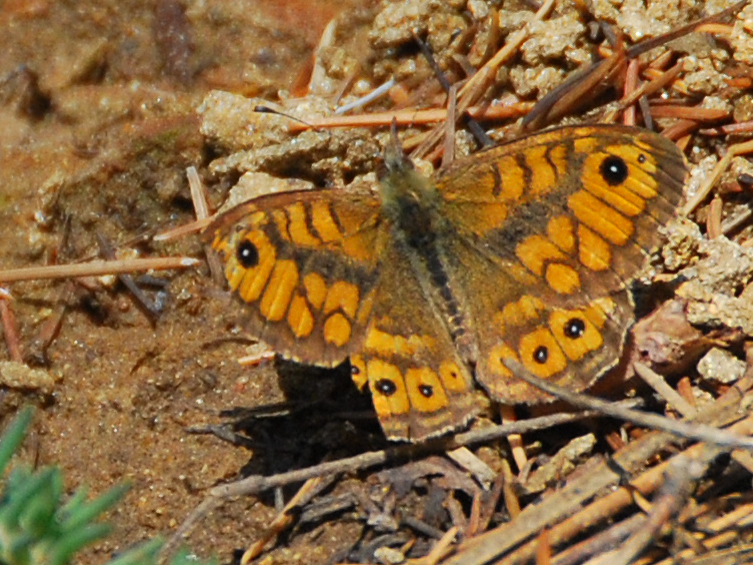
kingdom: Animalia
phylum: Arthropoda
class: Insecta
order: Lepidoptera
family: Nymphalidae
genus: Pararge
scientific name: Pararge Lasiommata megera
